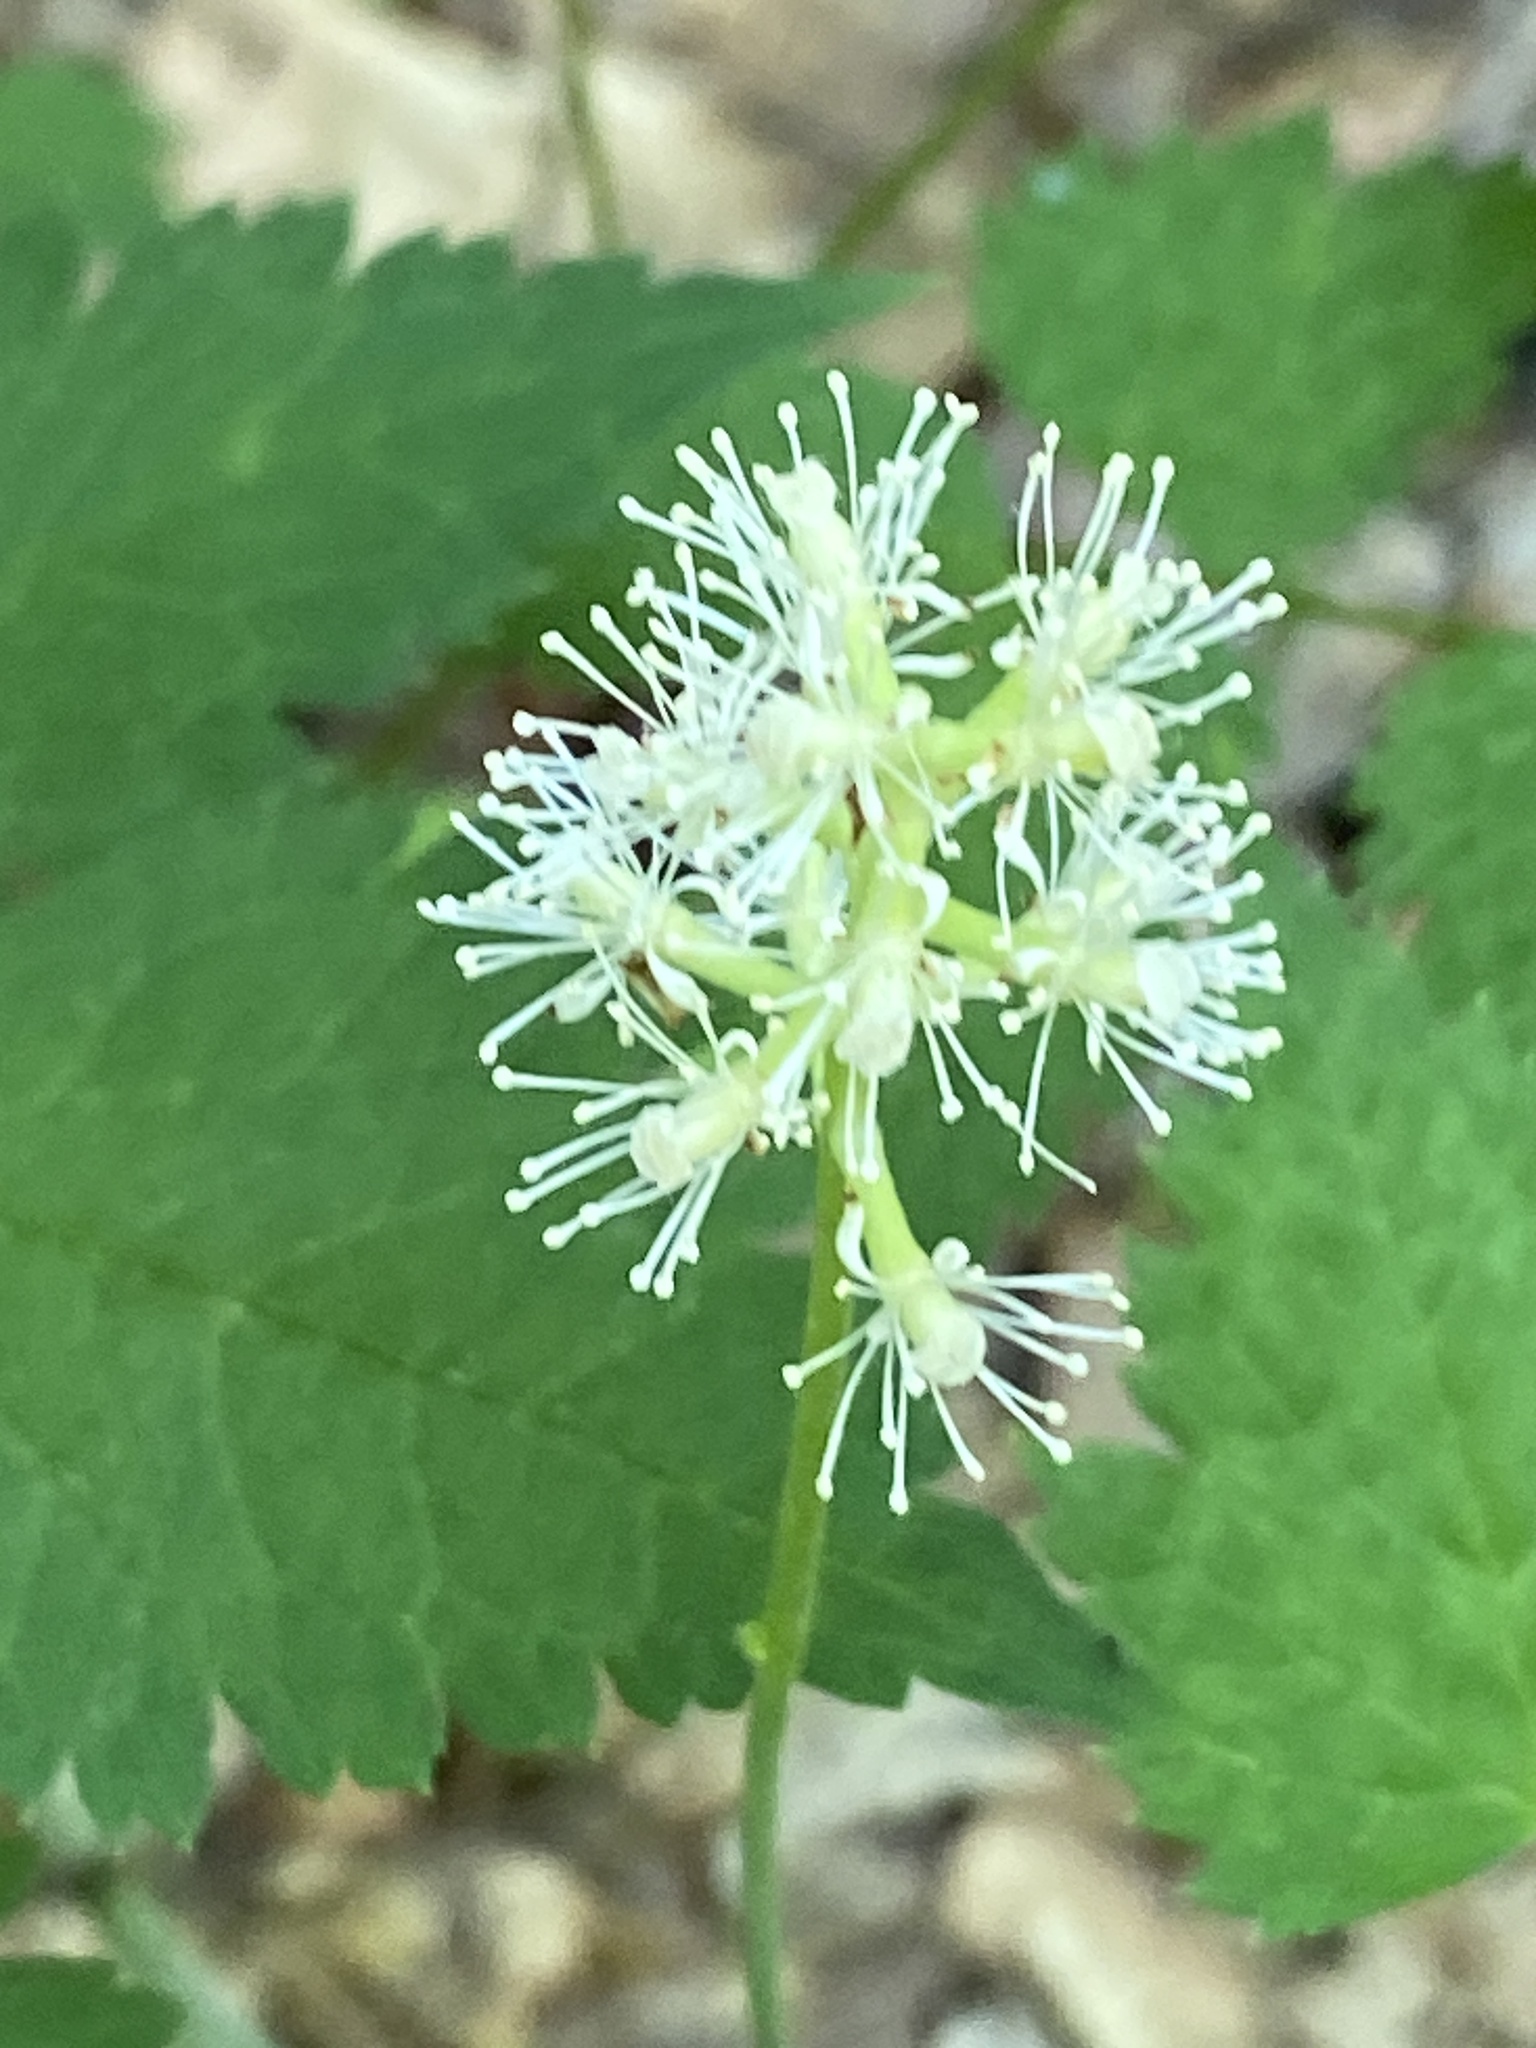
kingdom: Plantae
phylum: Tracheophyta
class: Magnoliopsida
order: Ranunculales
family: Ranunculaceae
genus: Actaea
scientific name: Actaea pachypoda
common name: Doll's-eyes
